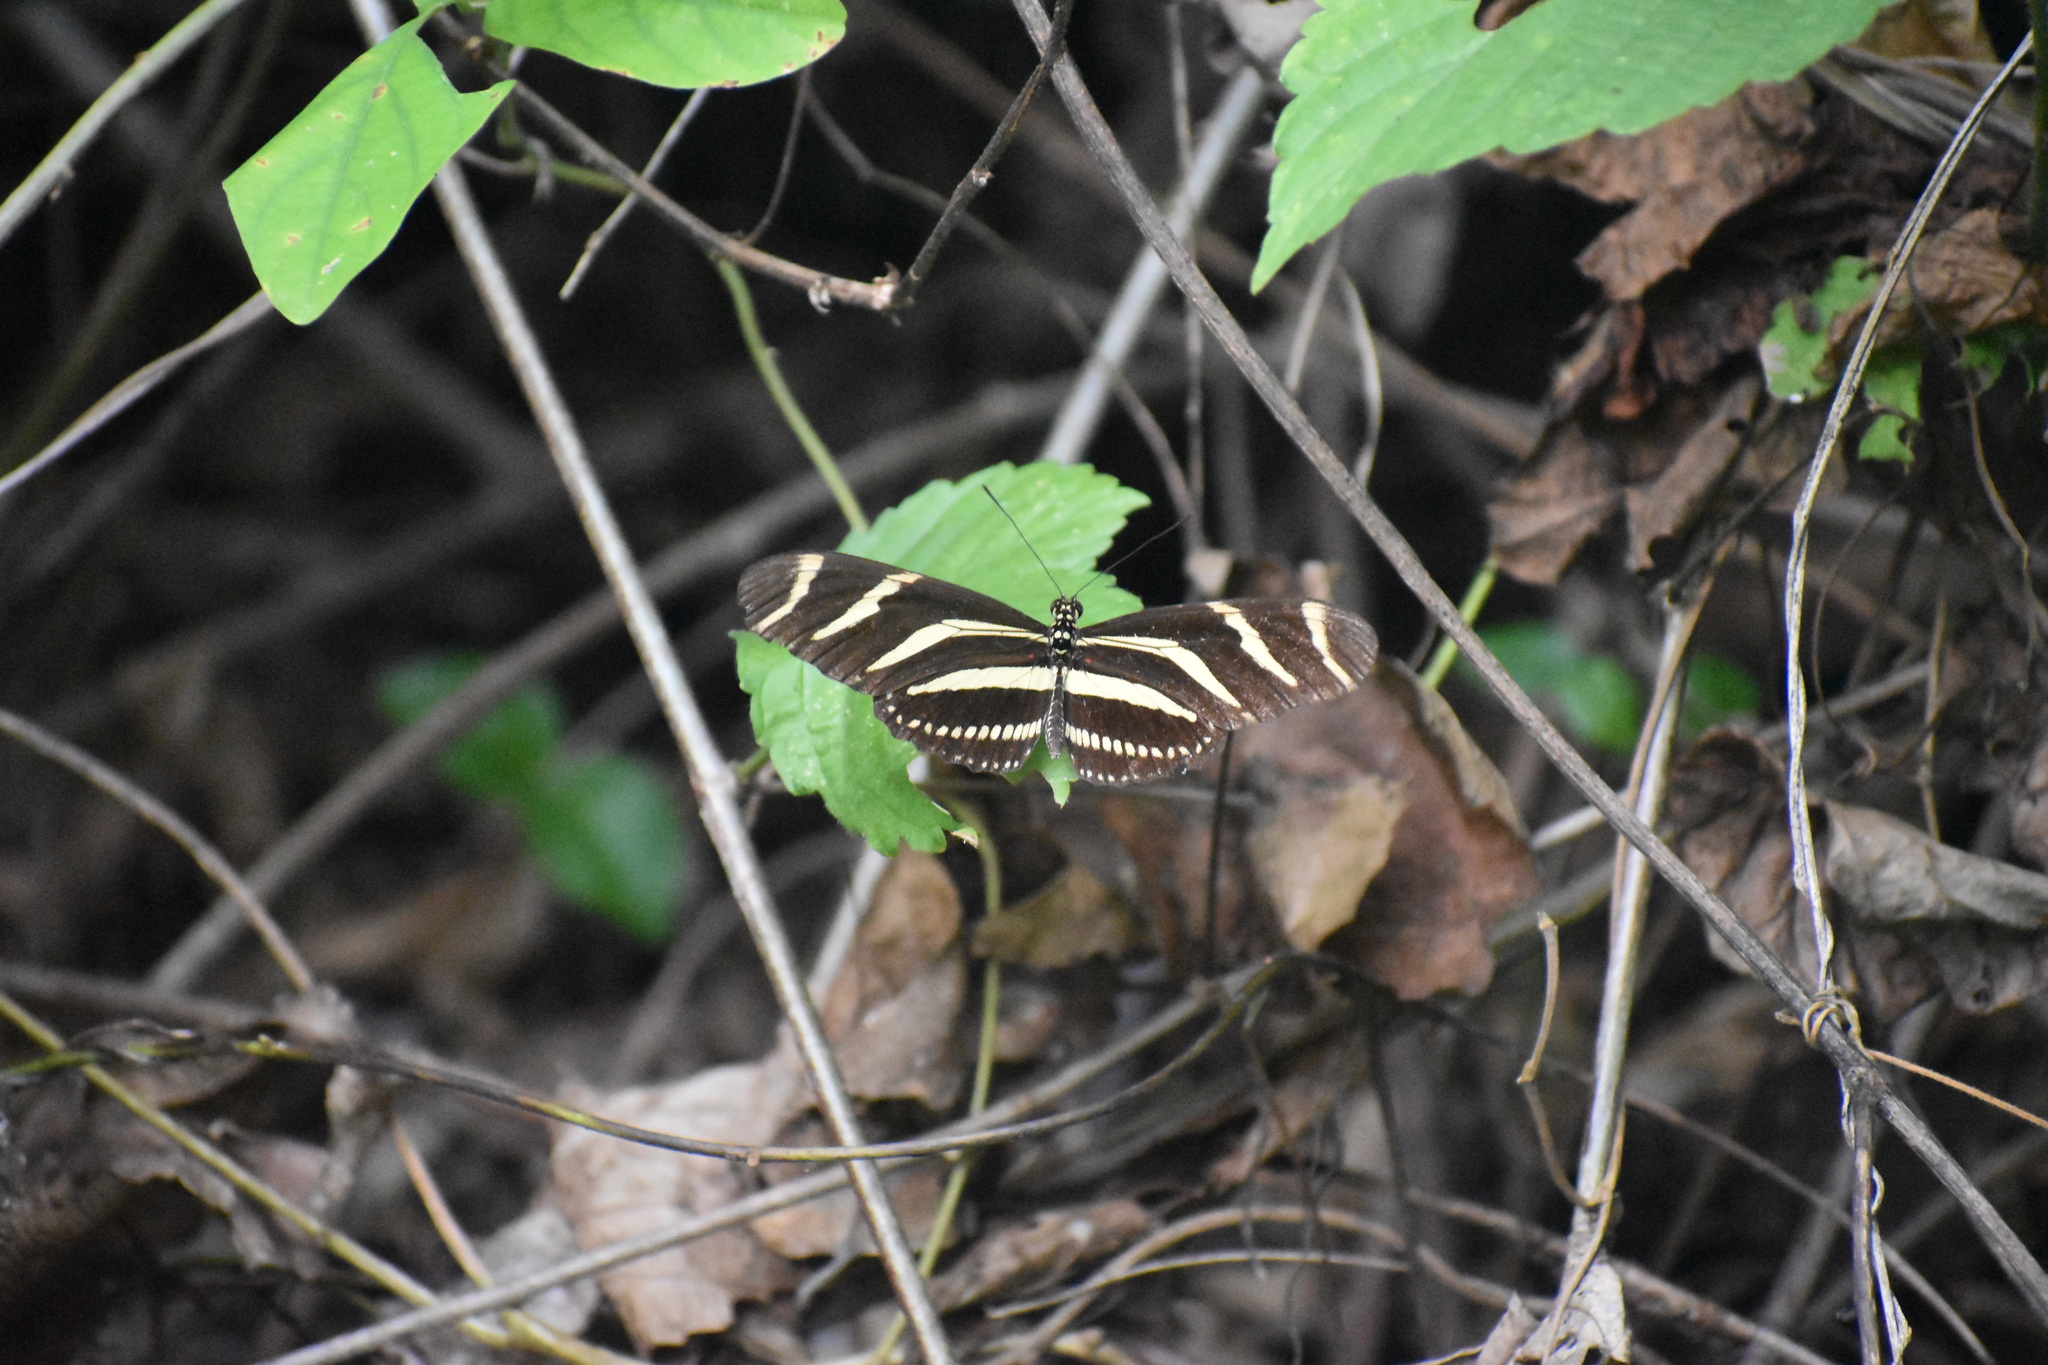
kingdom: Animalia
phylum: Arthropoda
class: Insecta
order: Lepidoptera
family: Nymphalidae
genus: Heliconius
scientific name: Heliconius charithonia
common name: Zebra long wing
